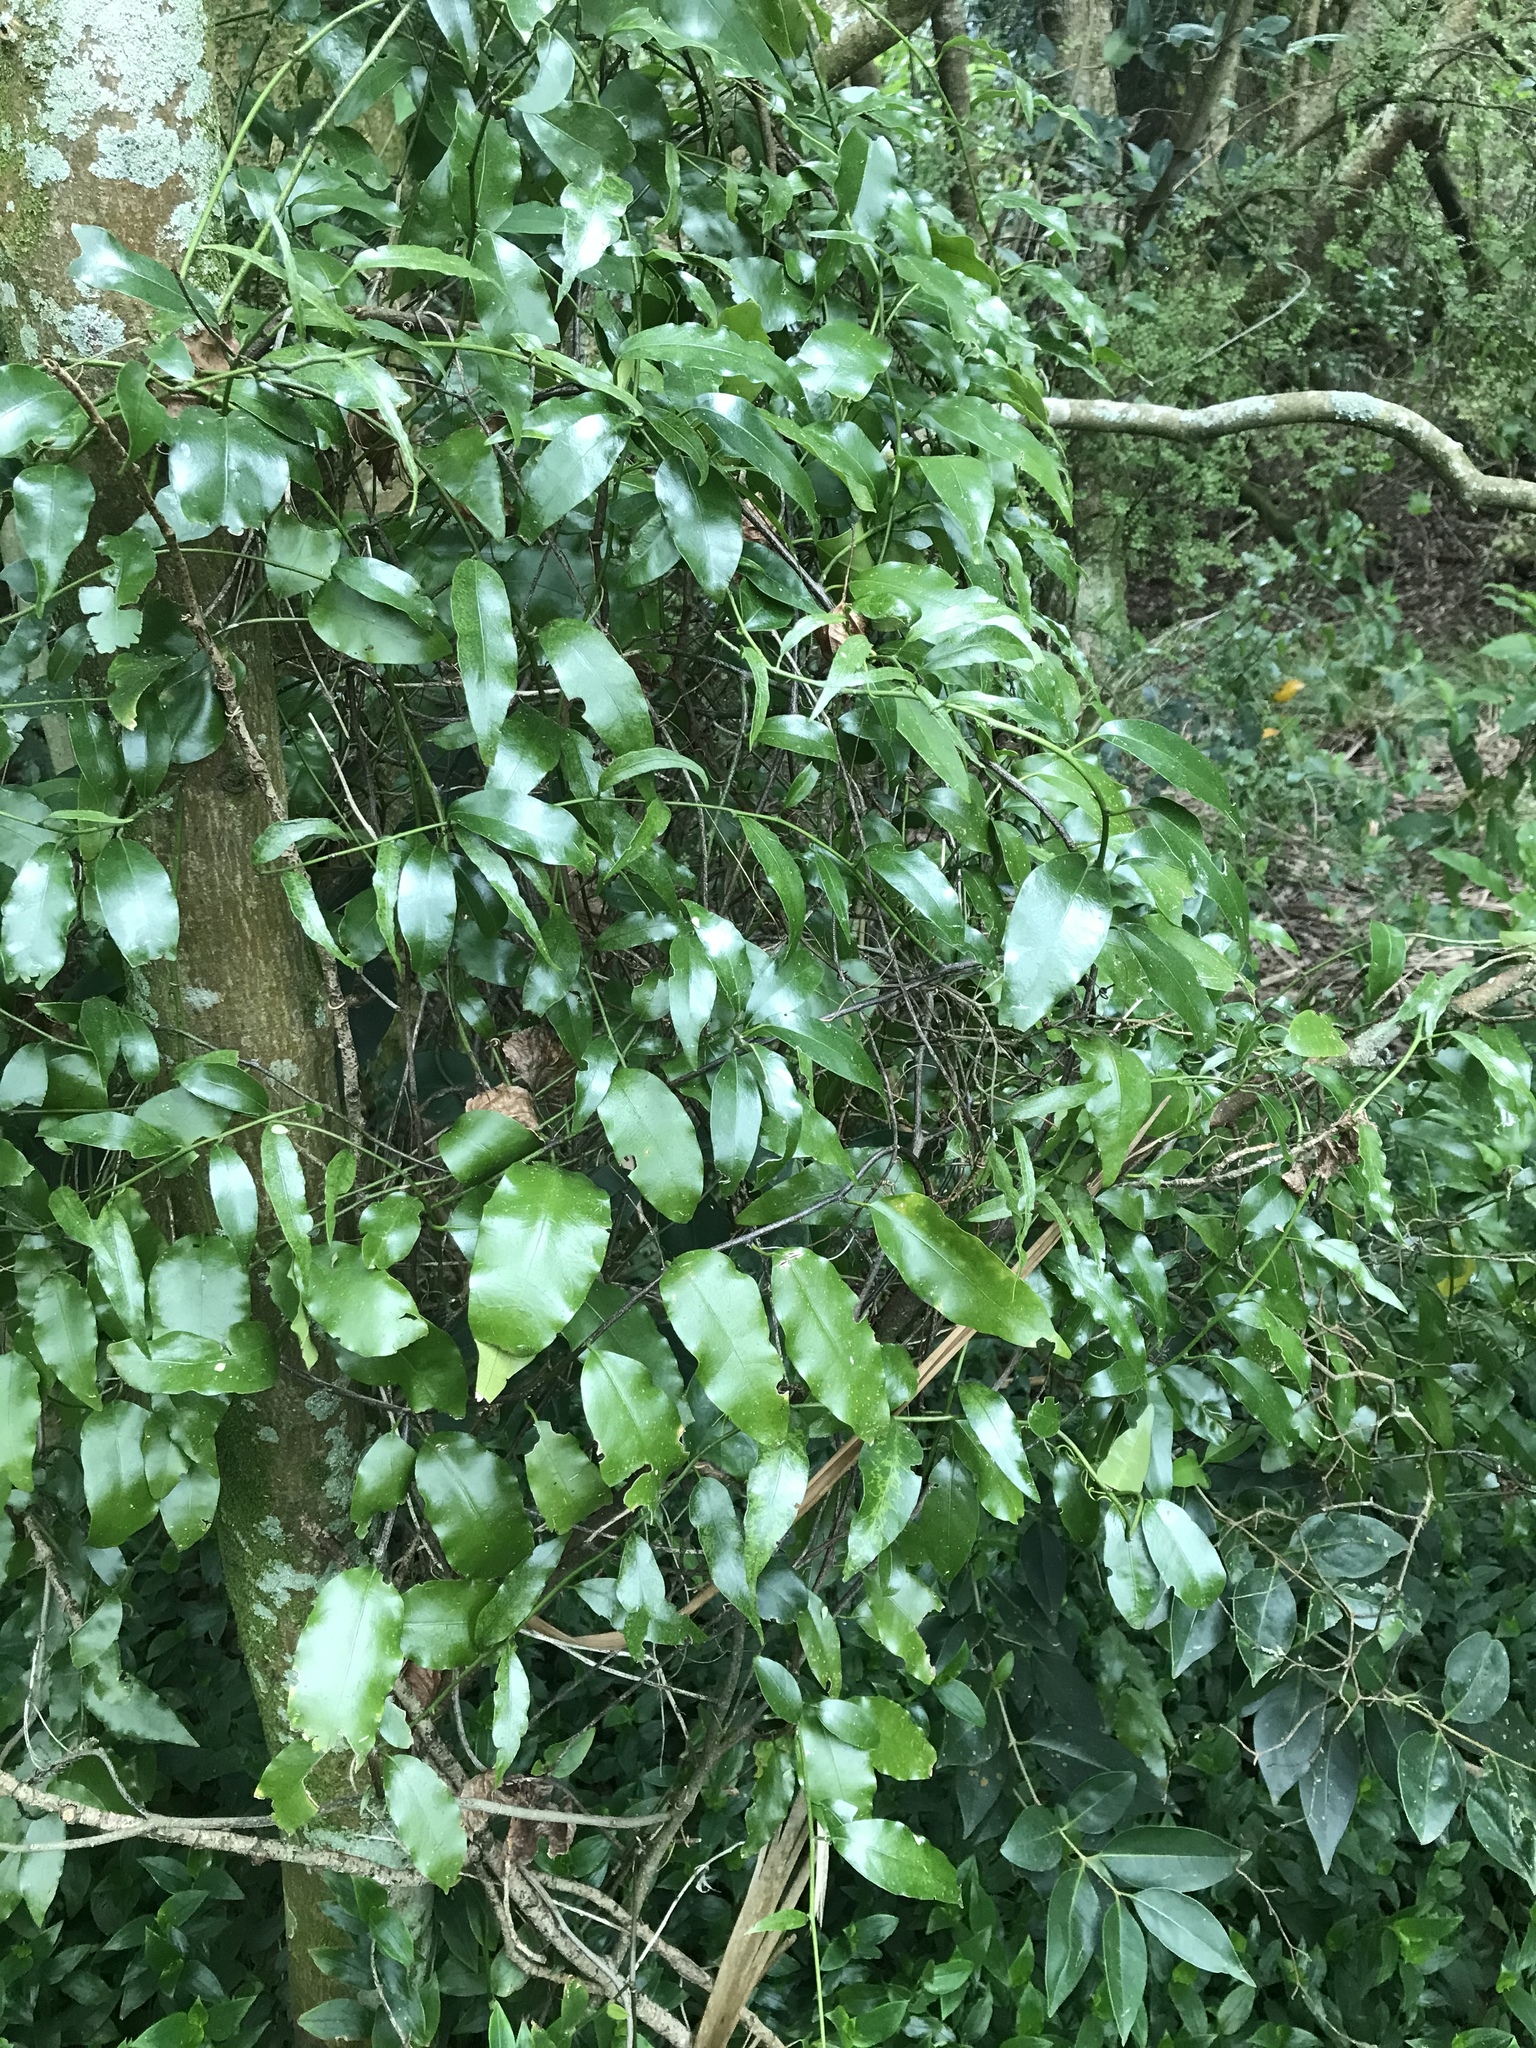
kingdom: Plantae
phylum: Tracheophyta
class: Magnoliopsida
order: Malpighiales
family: Passifloraceae
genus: Passiflora
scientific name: Passiflora tetrandra
